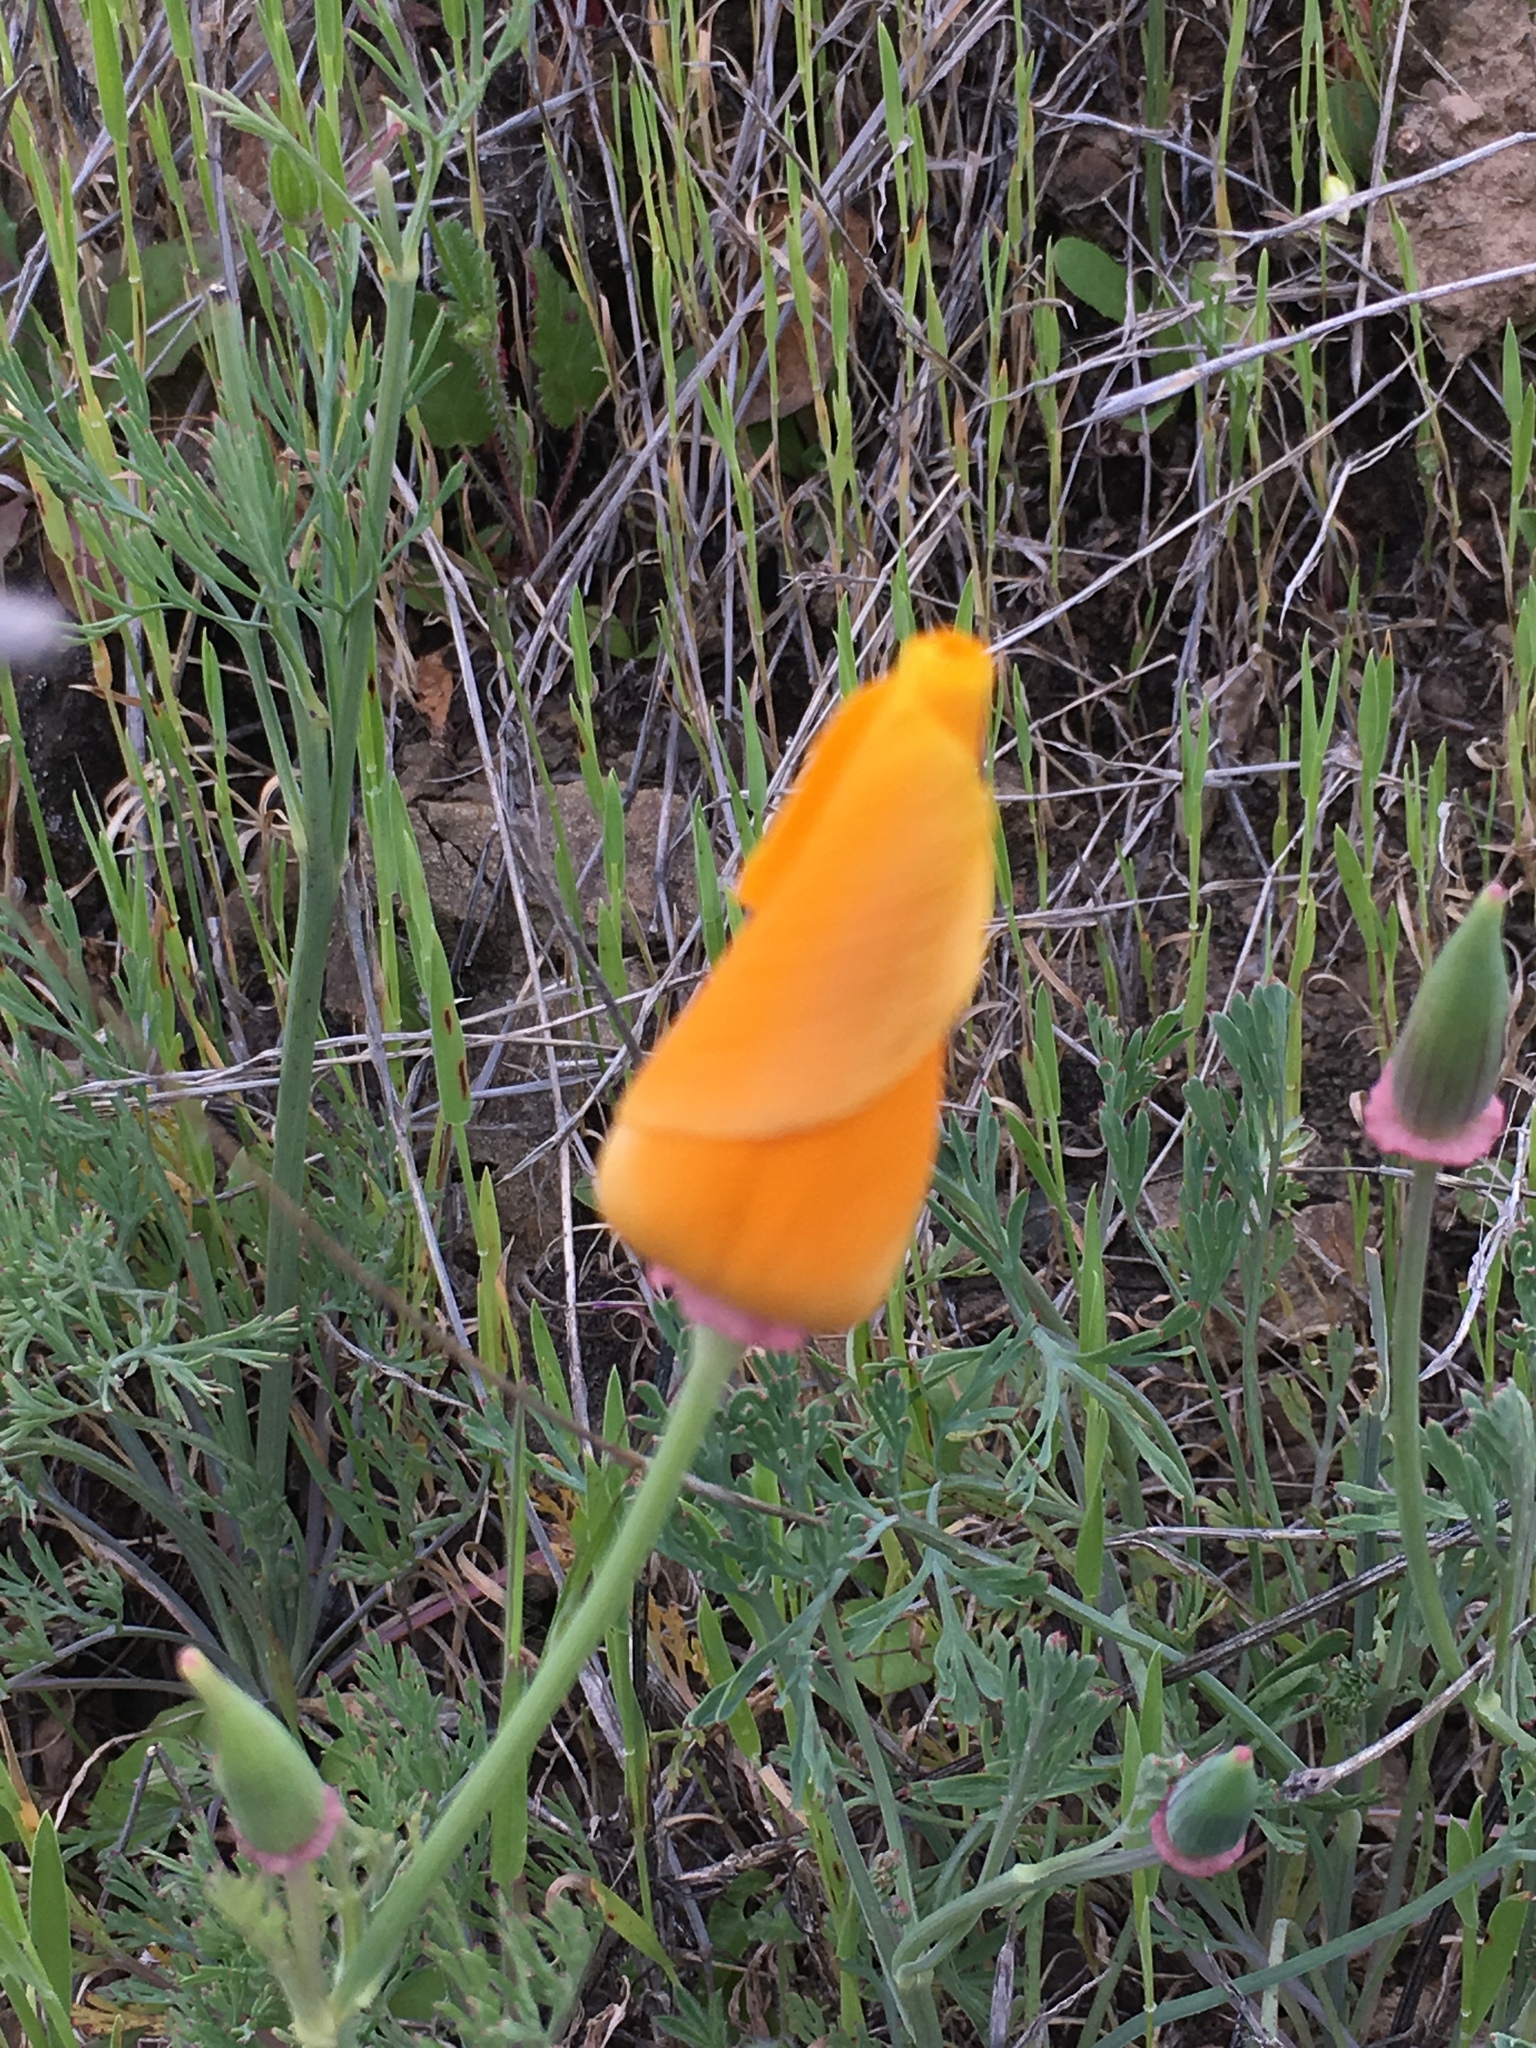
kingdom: Plantae
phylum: Tracheophyta
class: Magnoliopsida
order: Ranunculales
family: Papaveraceae
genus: Eschscholzia
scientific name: Eschscholzia californica
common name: California poppy
